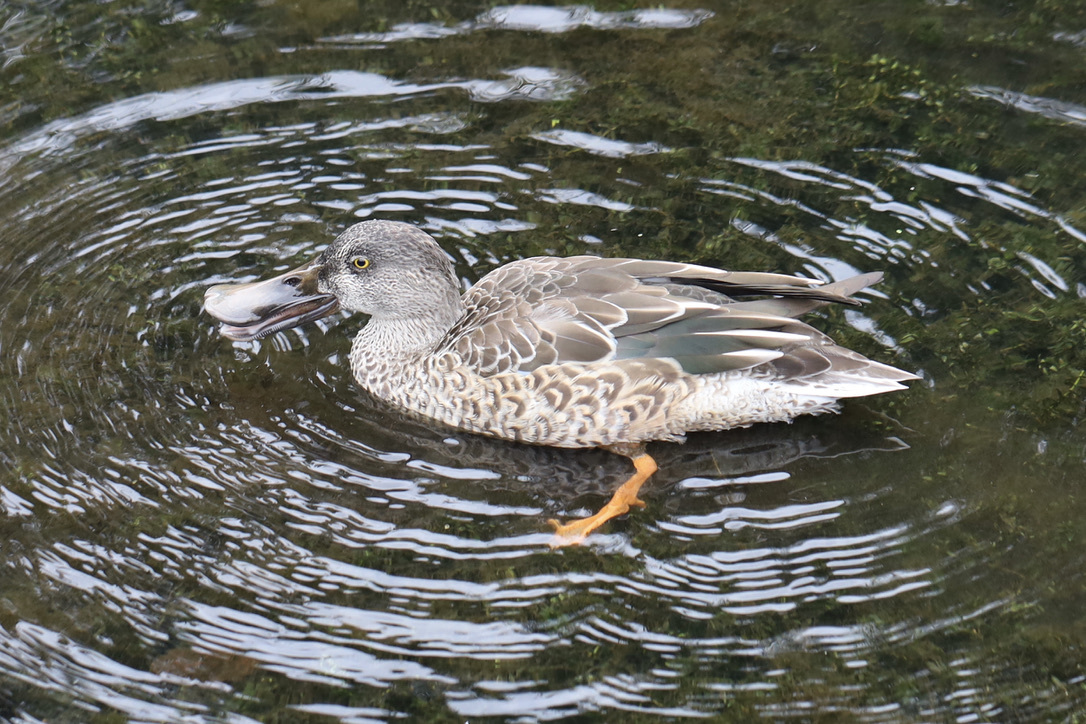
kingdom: Animalia
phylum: Chordata
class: Aves
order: Anseriformes
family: Anatidae
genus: Spatula
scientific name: Spatula clypeata
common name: Northern shoveler
